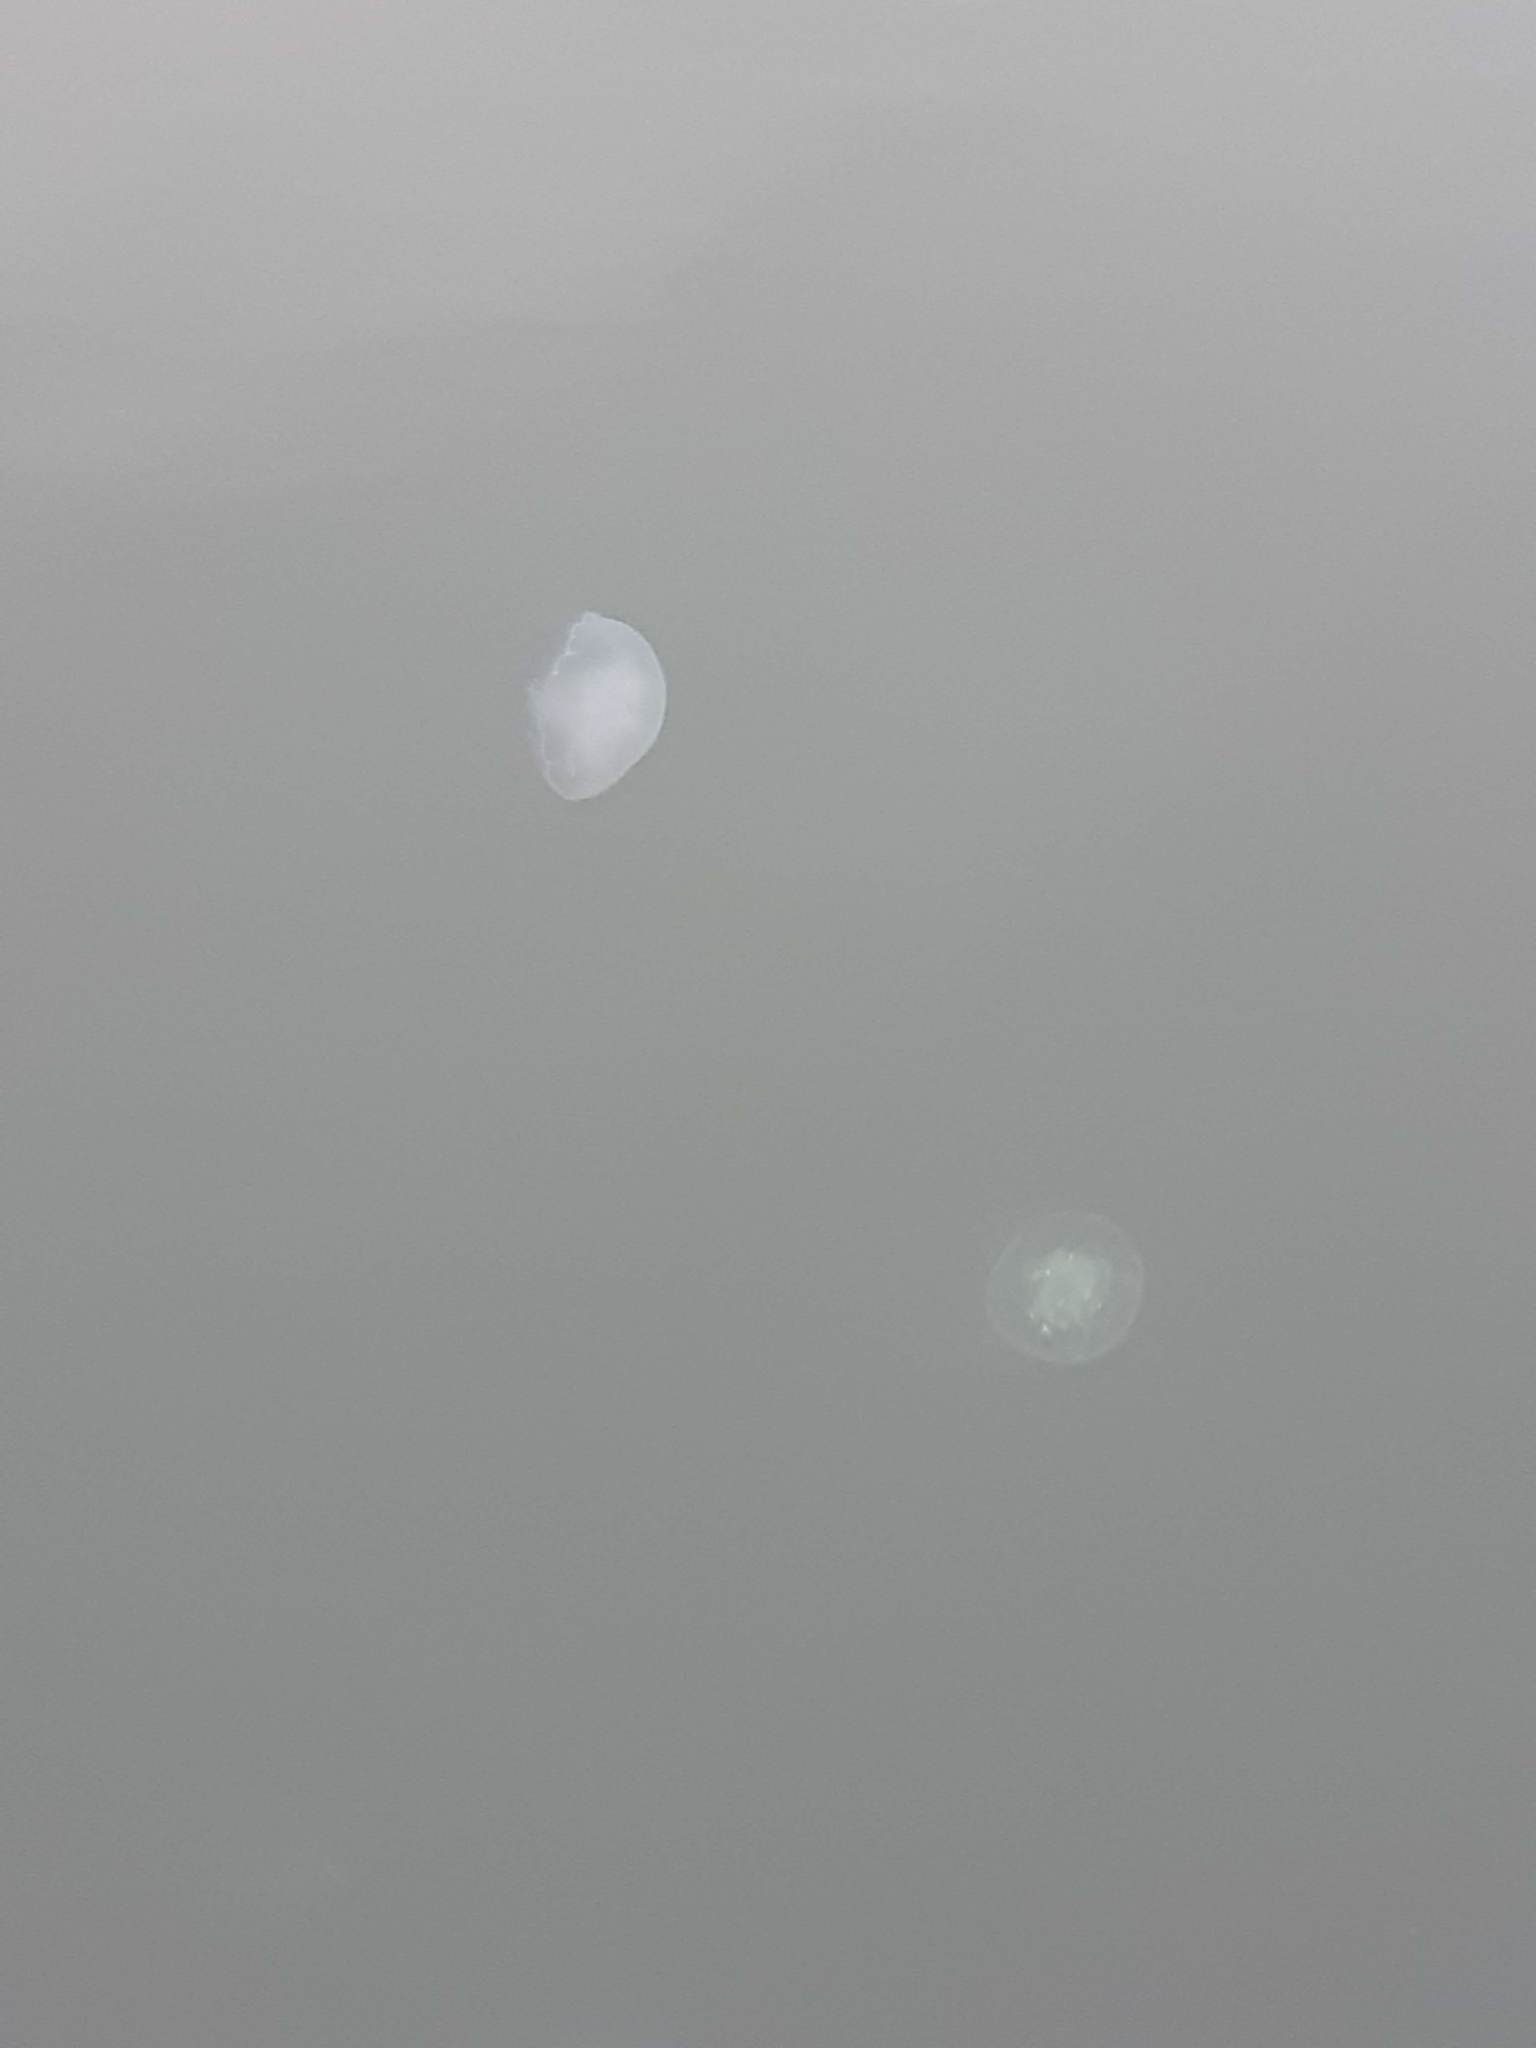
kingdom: Animalia
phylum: Cnidaria
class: Scyphozoa
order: Semaeostomeae
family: Ulmaridae
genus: Aurelia
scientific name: Aurelia labiata
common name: Pacific moon jelly
